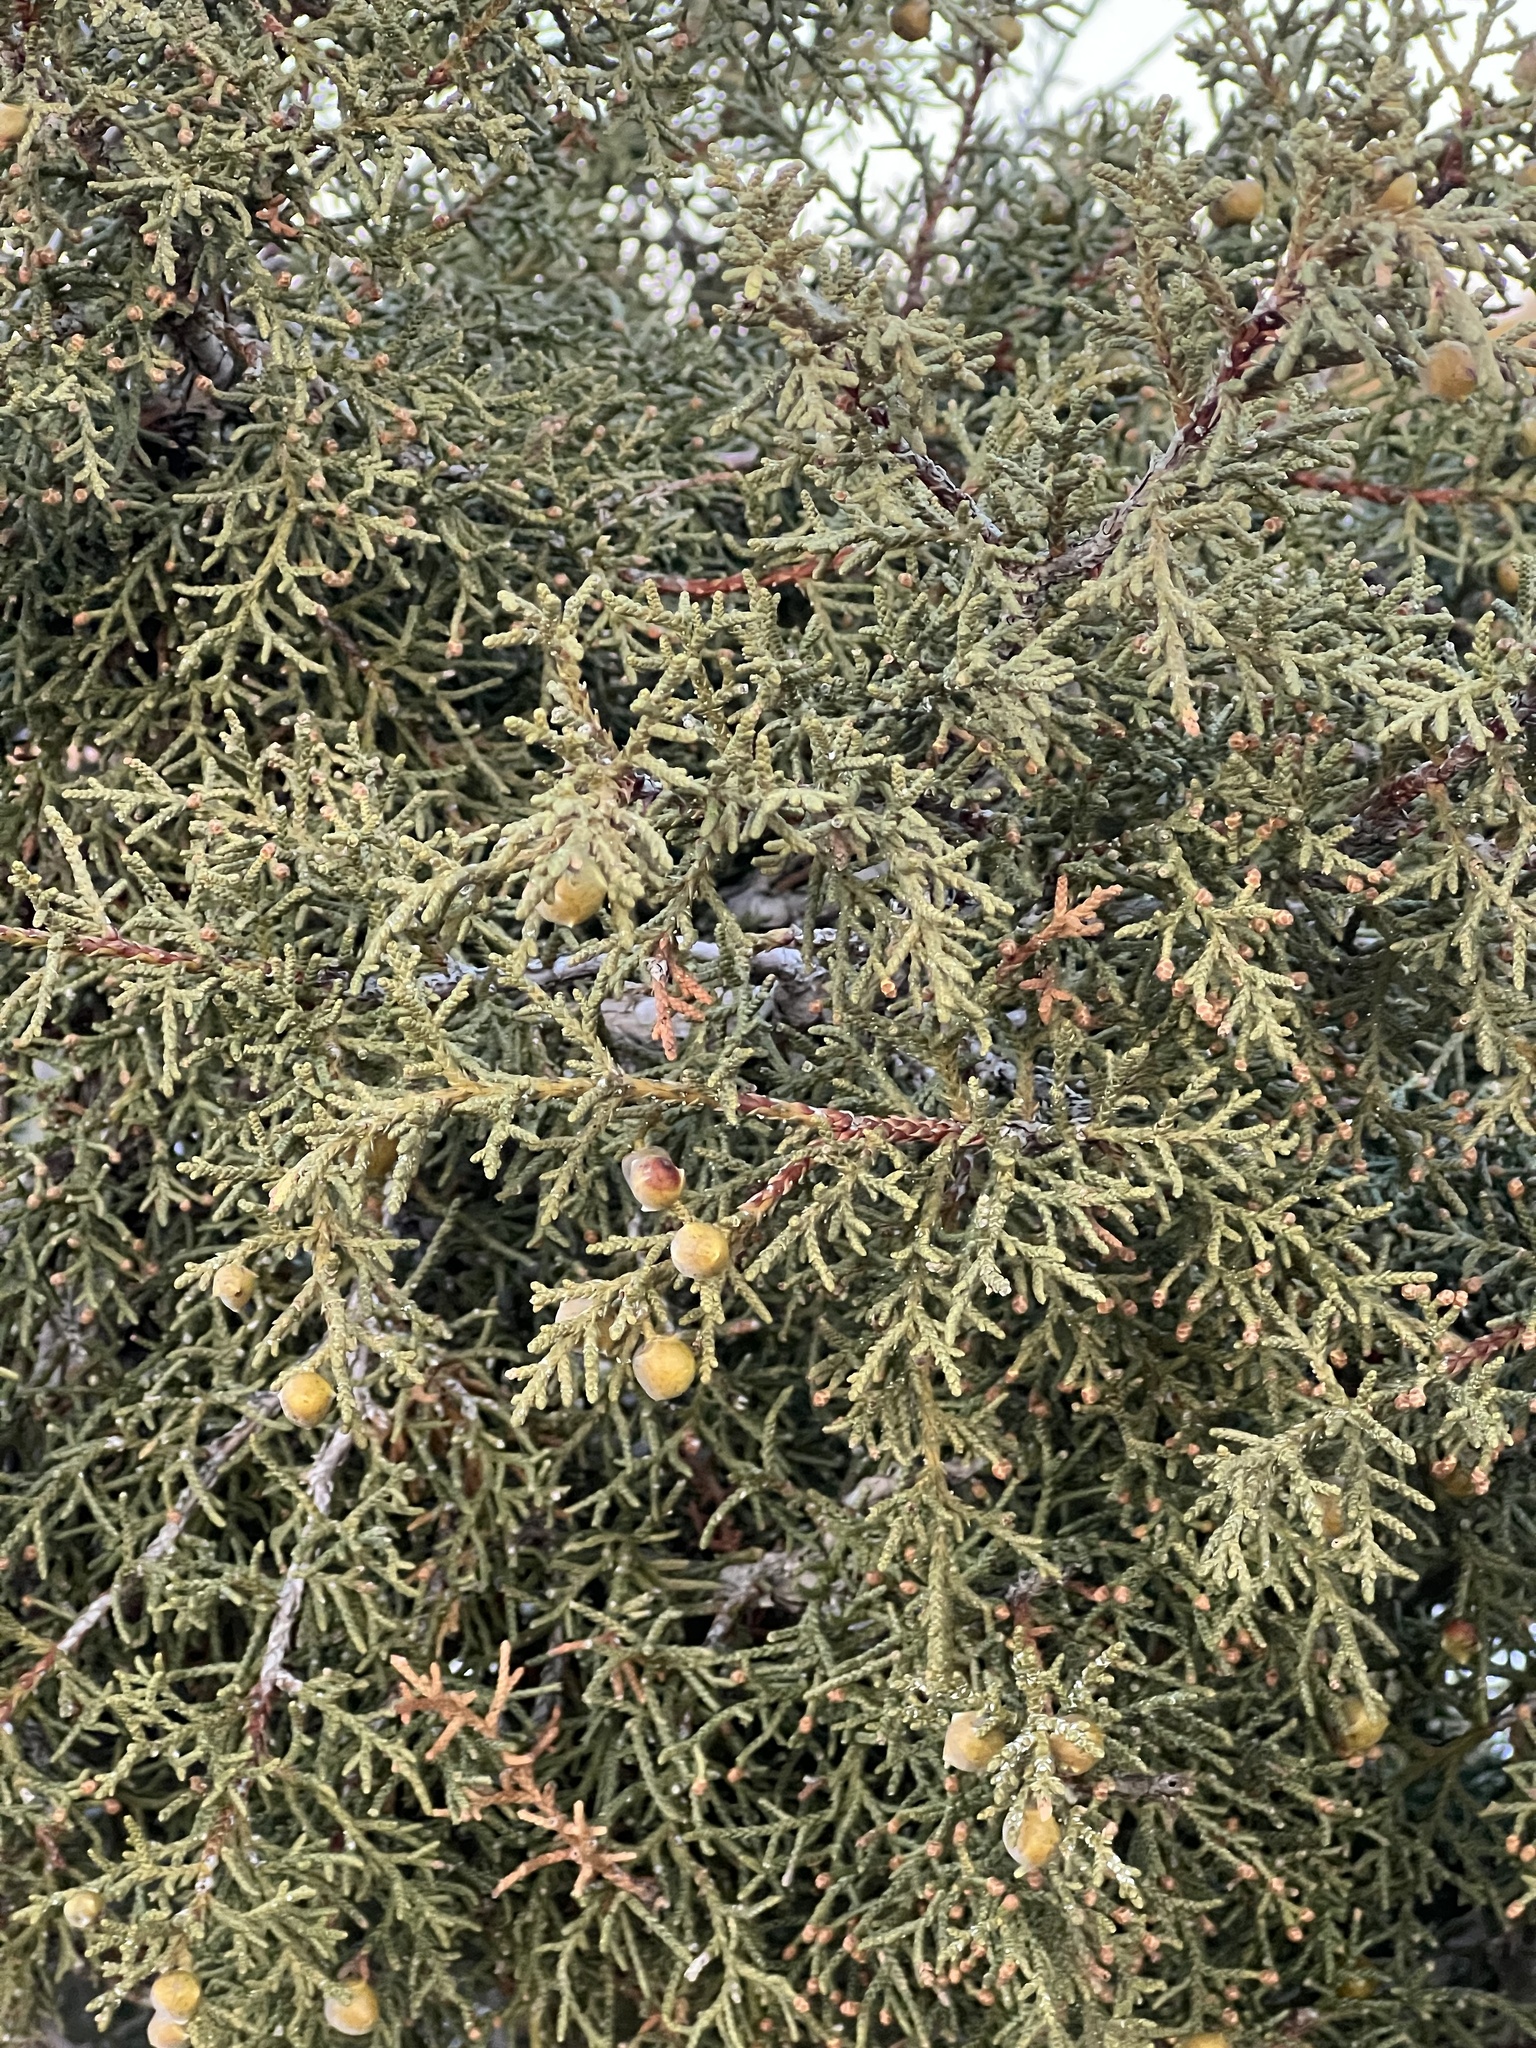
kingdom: Plantae
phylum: Tracheophyta
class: Pinopsida
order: Pinales
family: Cupressaceae
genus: Juniperus
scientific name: Juniperus osteosperma
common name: Utah juniper
